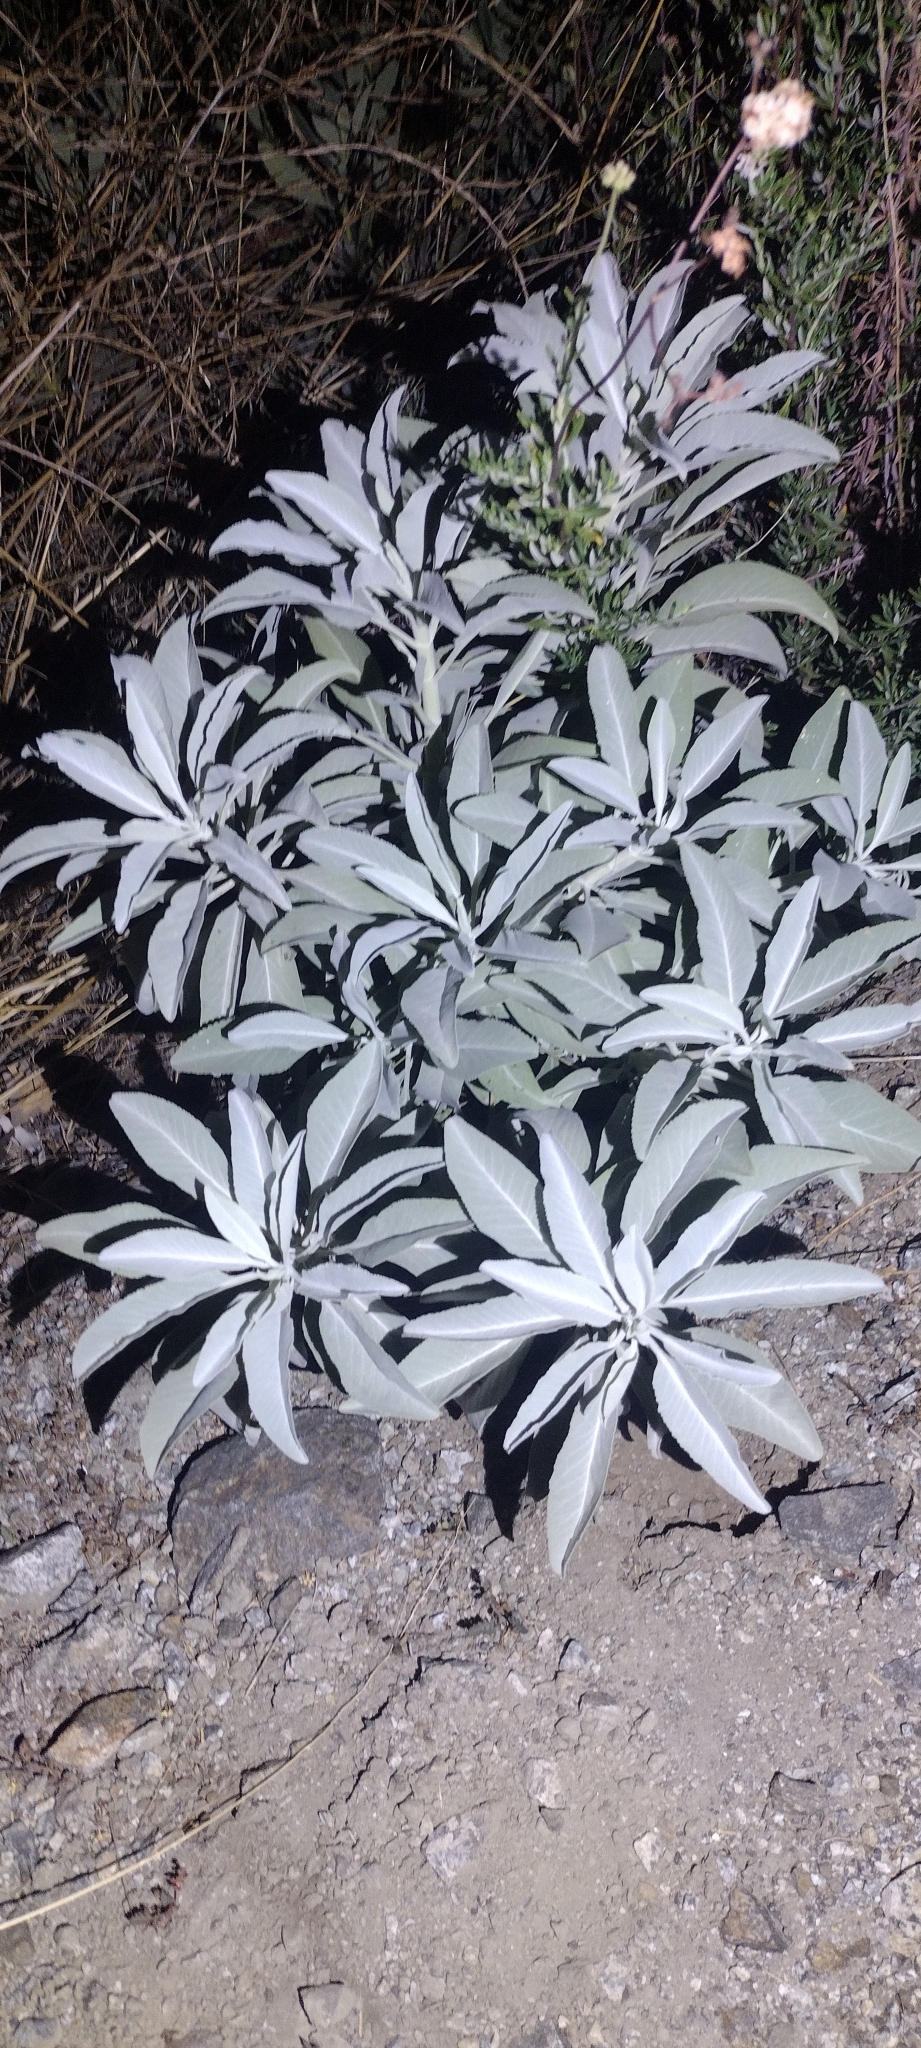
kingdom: Plantae
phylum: Tracheophyta
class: Magnoliopsida
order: Lamiales
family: Lamiaceae
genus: Salvia
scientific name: Salvia apiana
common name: White sage
